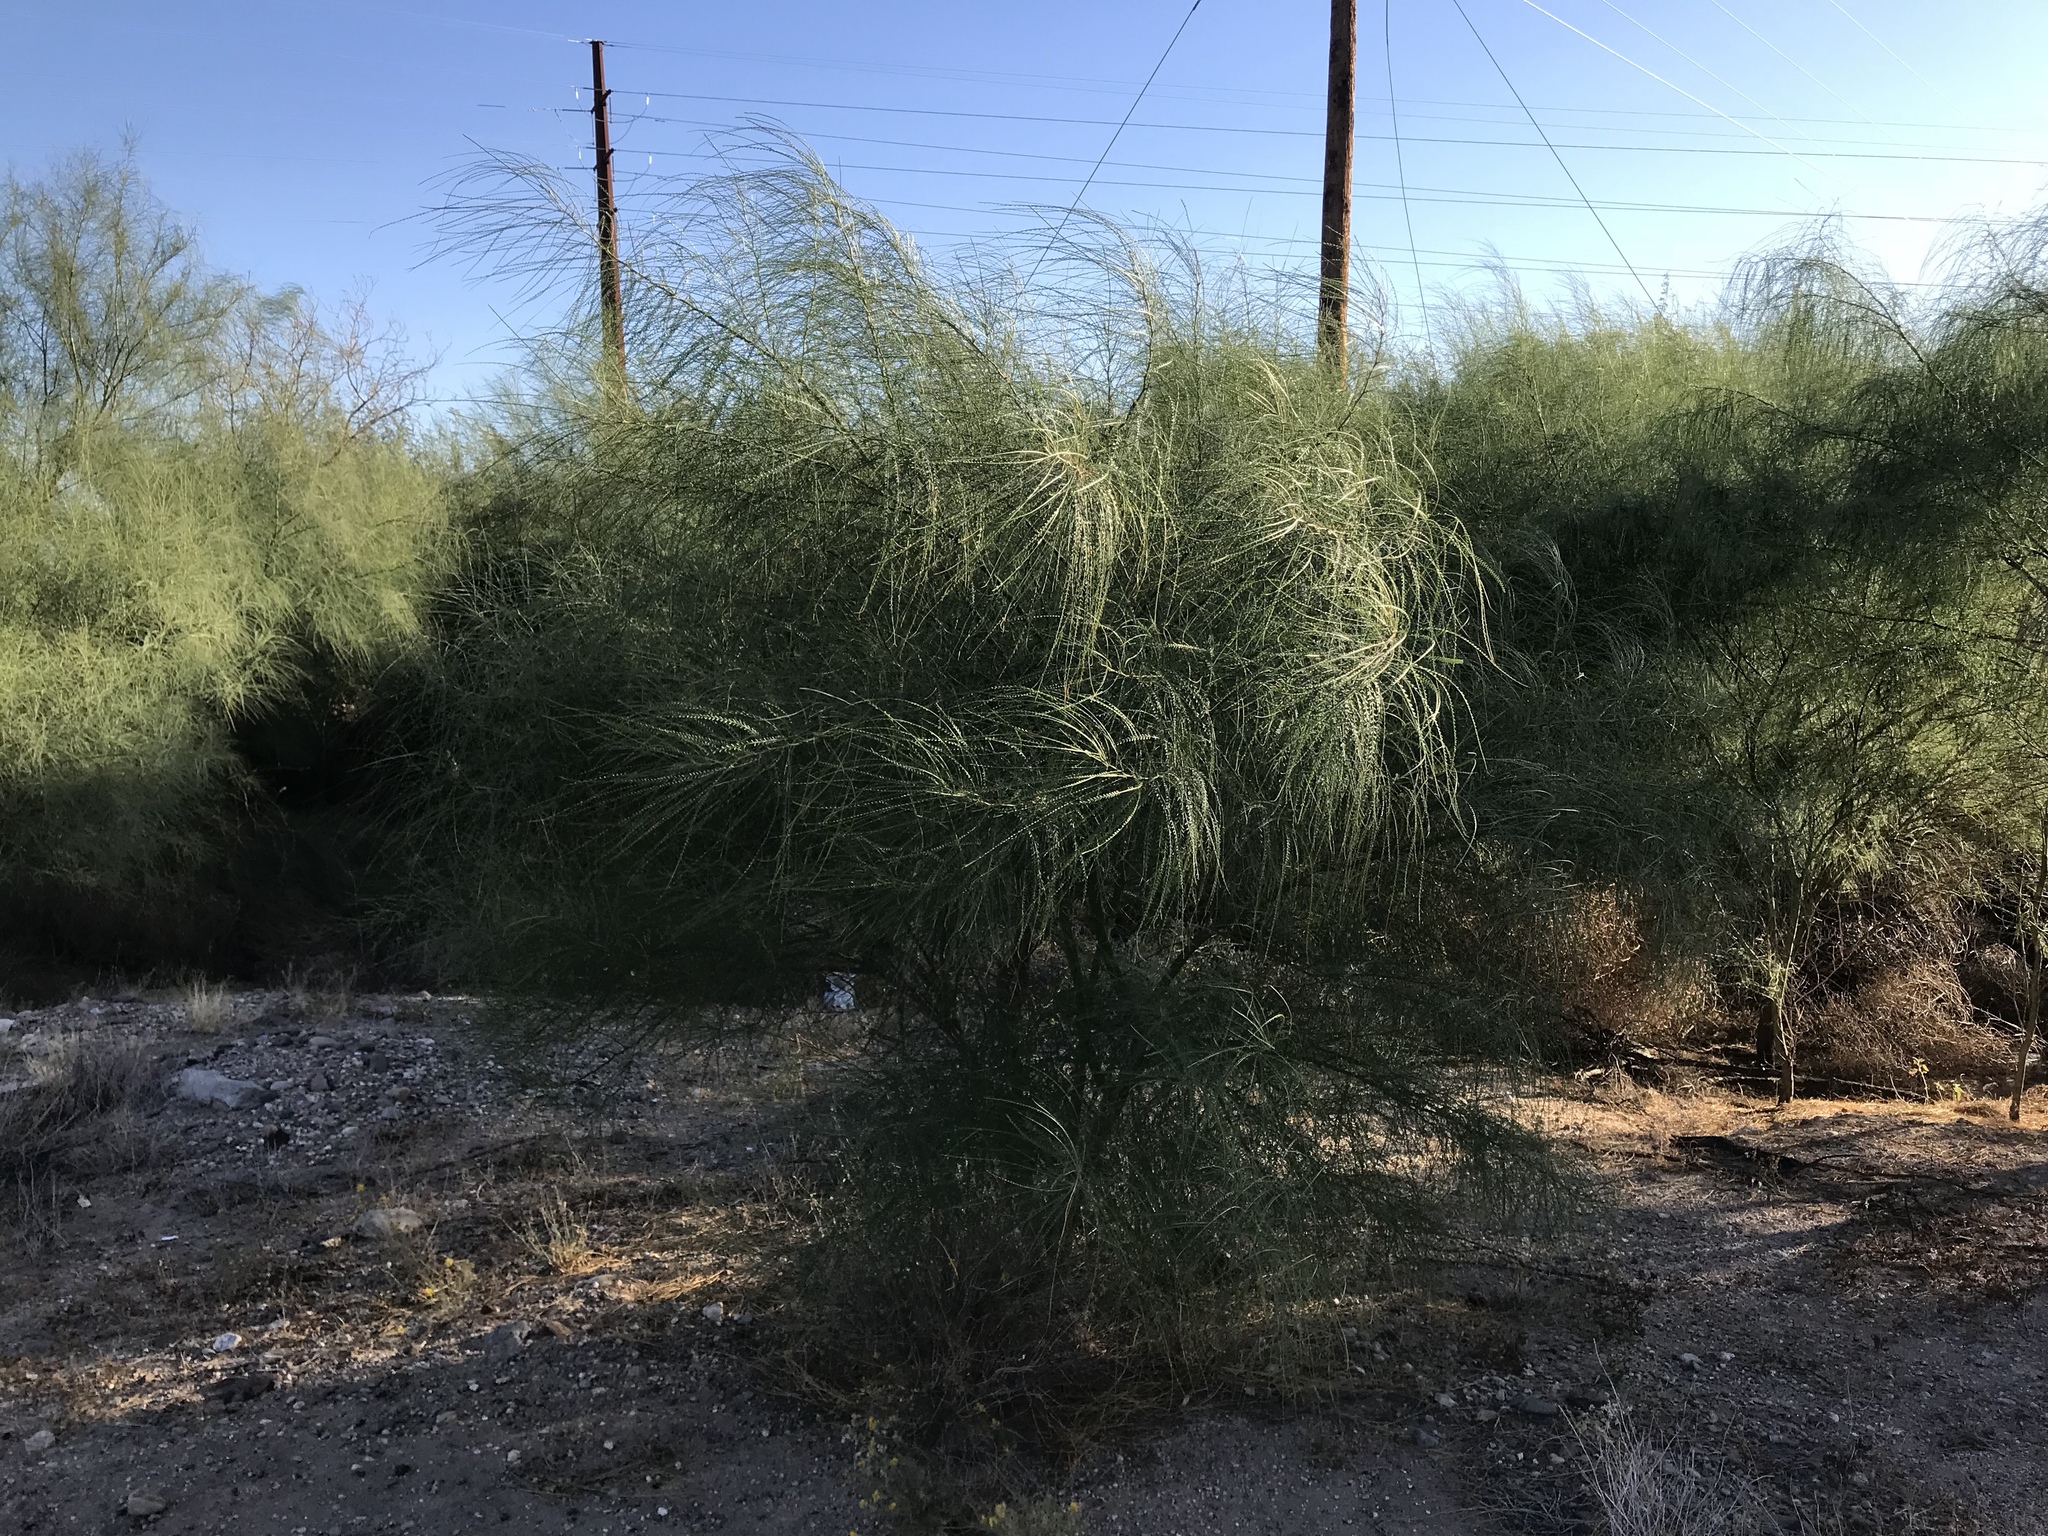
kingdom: Plantae
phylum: Tracheophyta
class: Magnoliopsida
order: Fabales
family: Fabaceae
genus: Parkinsonia
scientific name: Parkinsonia aculeata
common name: Jerusalem thorn
